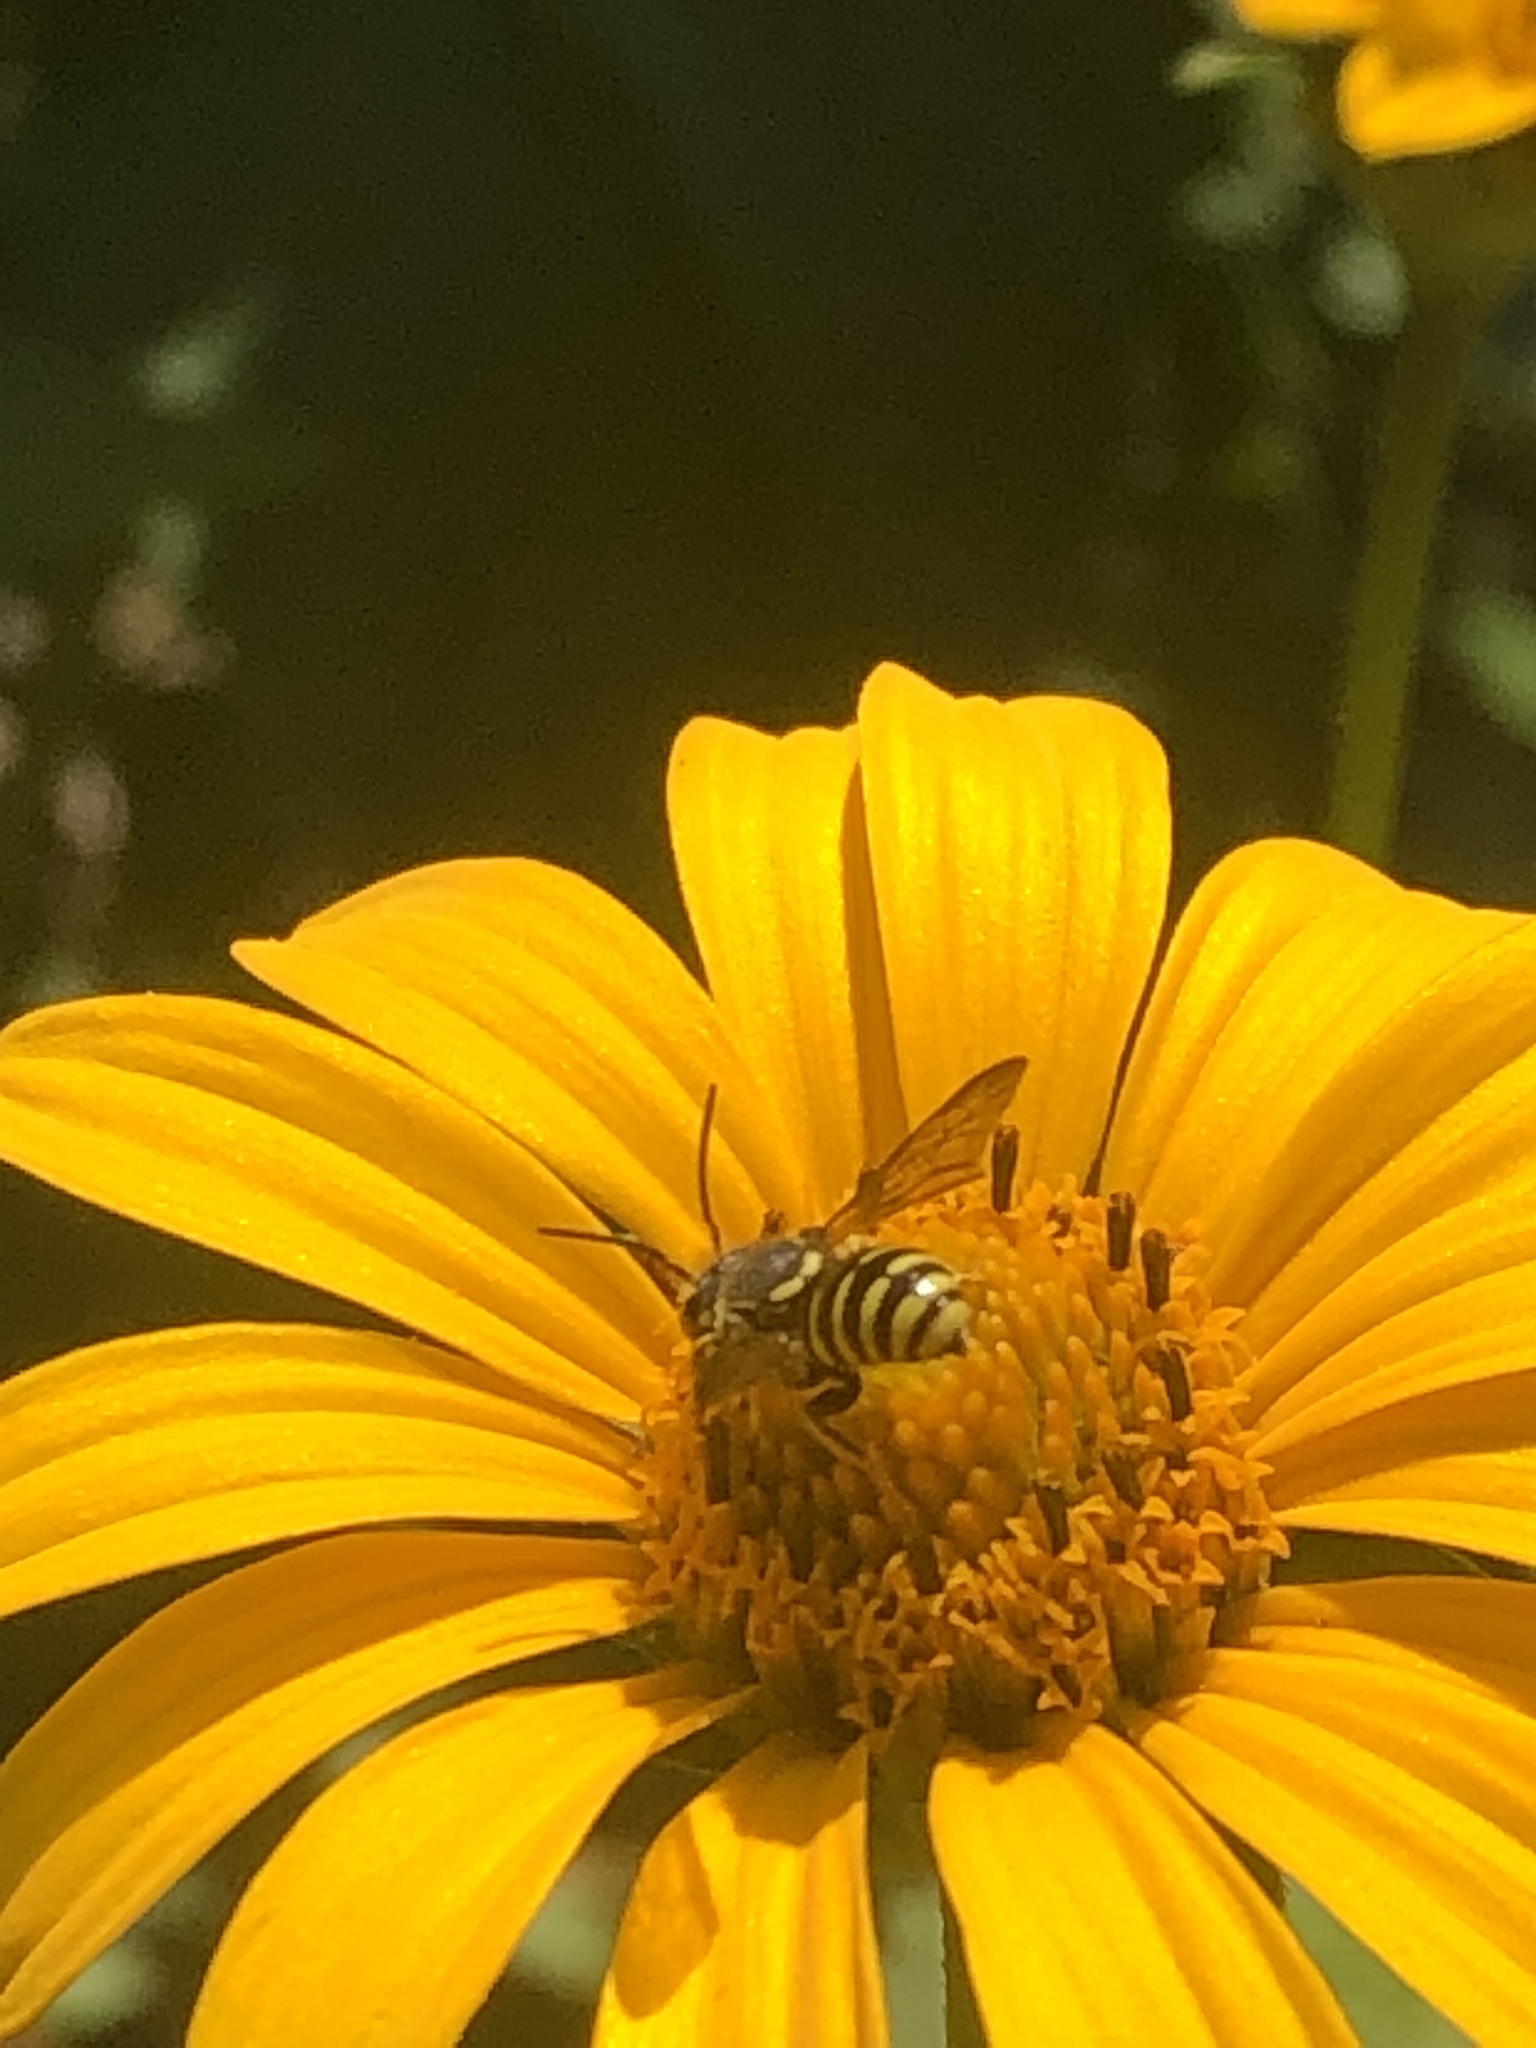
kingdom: Animalia
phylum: Arthropoda
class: Insecta
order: Hymenoptera
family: Megachilidae
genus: Paranthidium
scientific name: Paranthidium jugatorium
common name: Sunflower burrowing-resin bee
